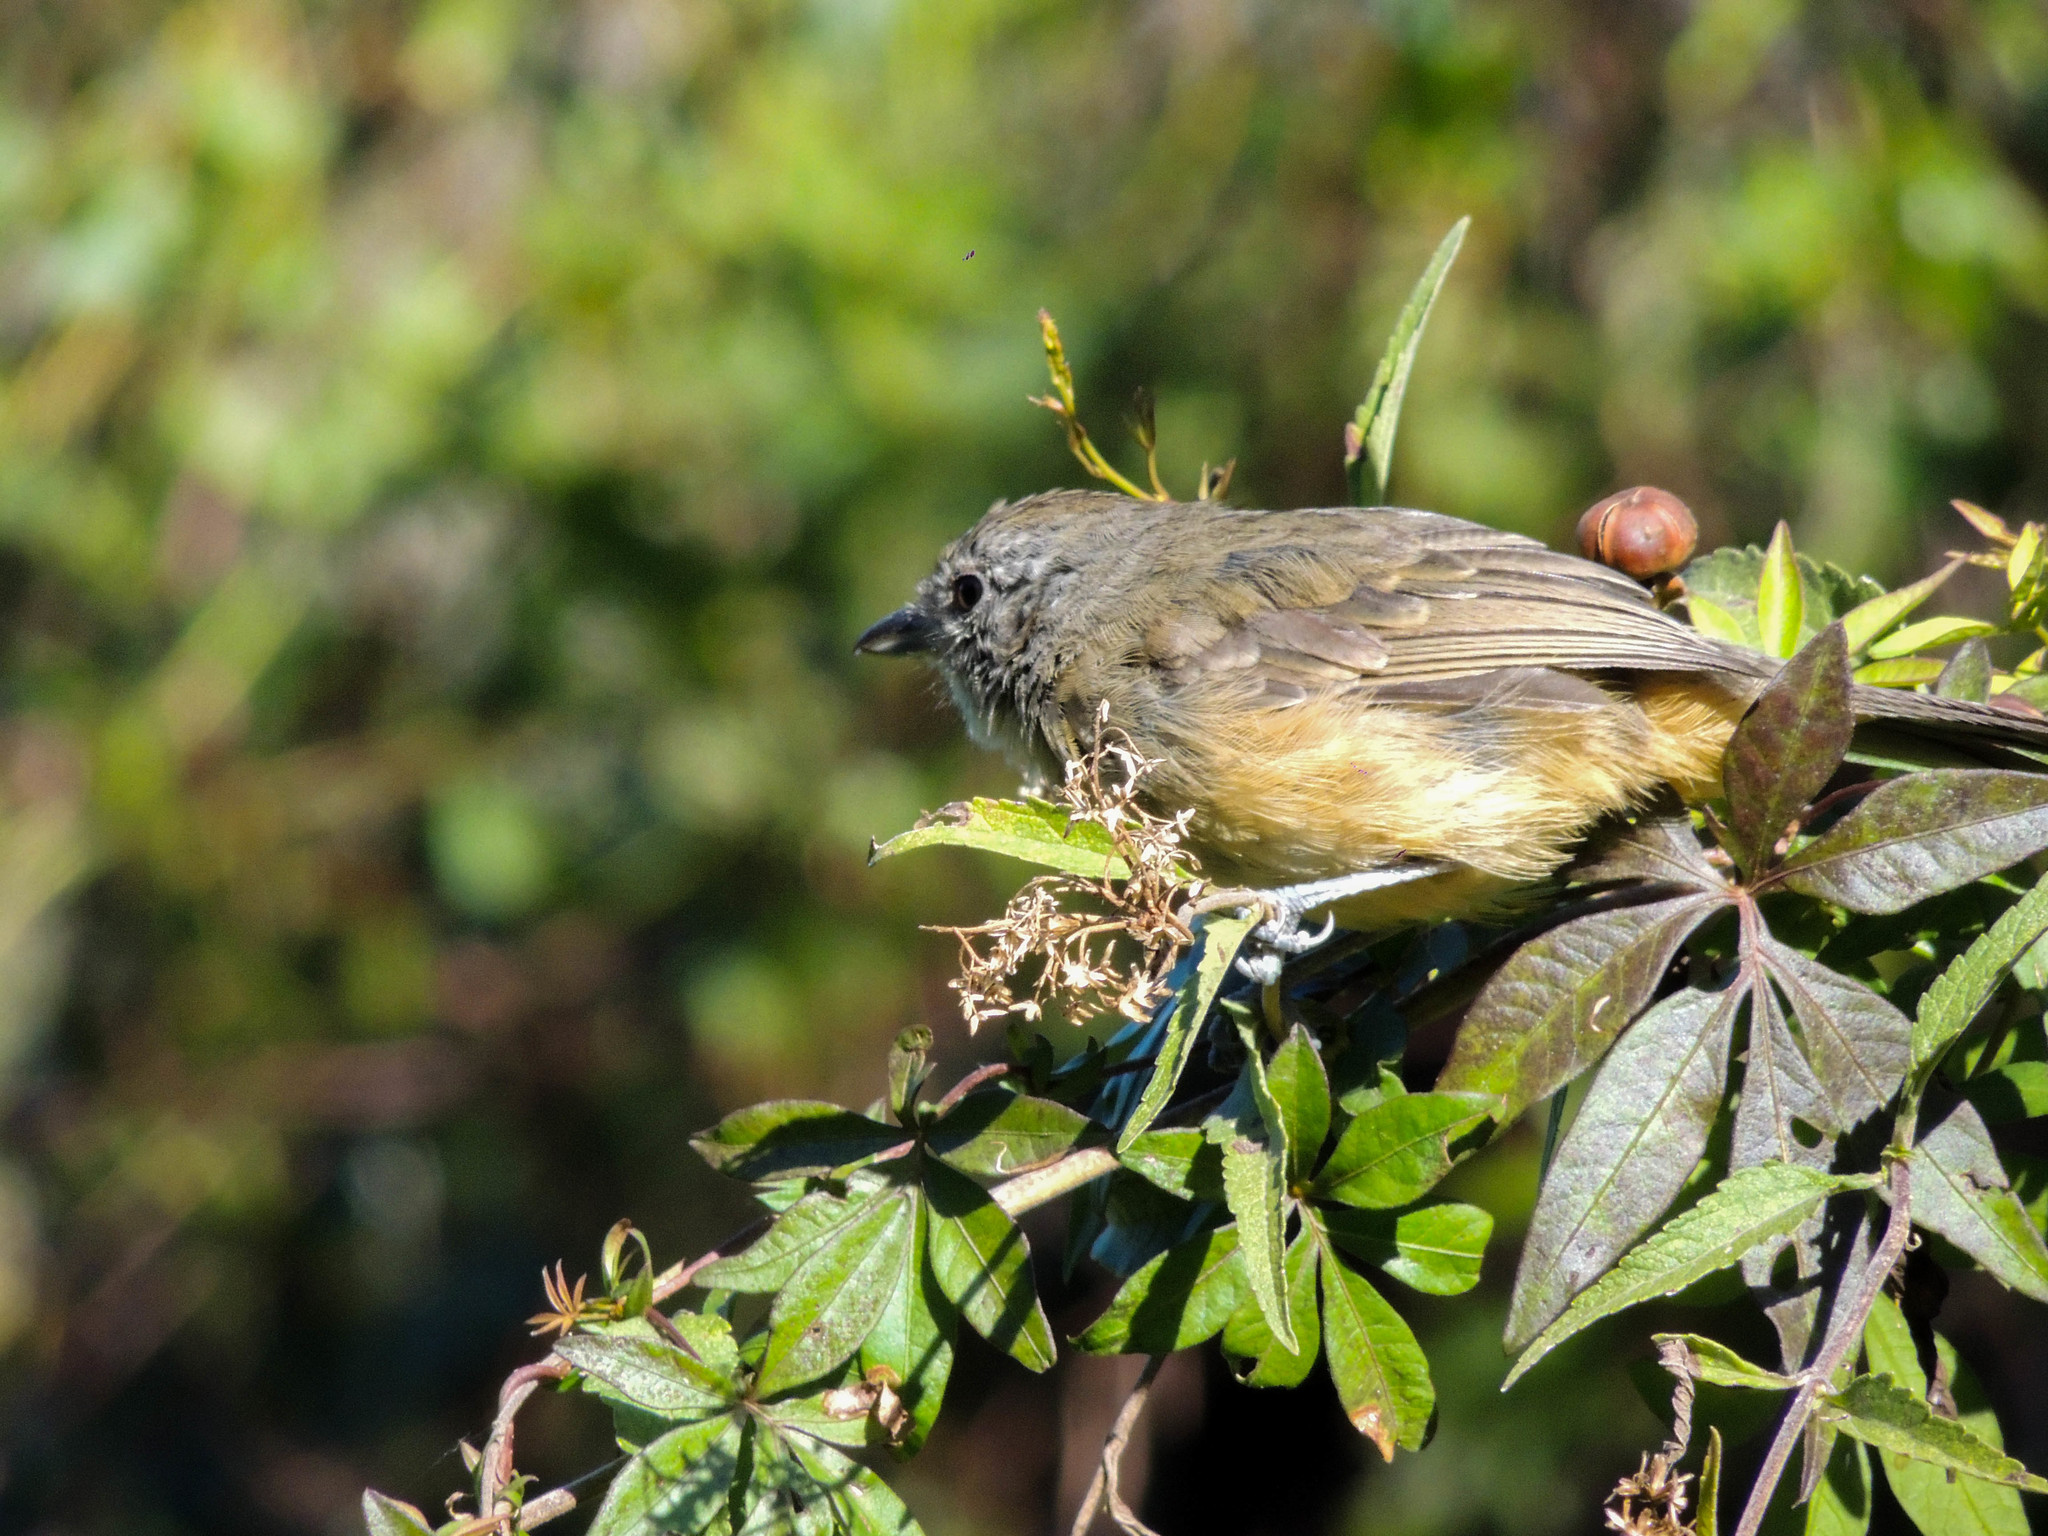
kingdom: Animalia
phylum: Chordata
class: Aves
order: Passeriformes
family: Thamnophilidae
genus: Thamnophilus
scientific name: Thamnophilus caerulescens
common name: Variable antshrike
